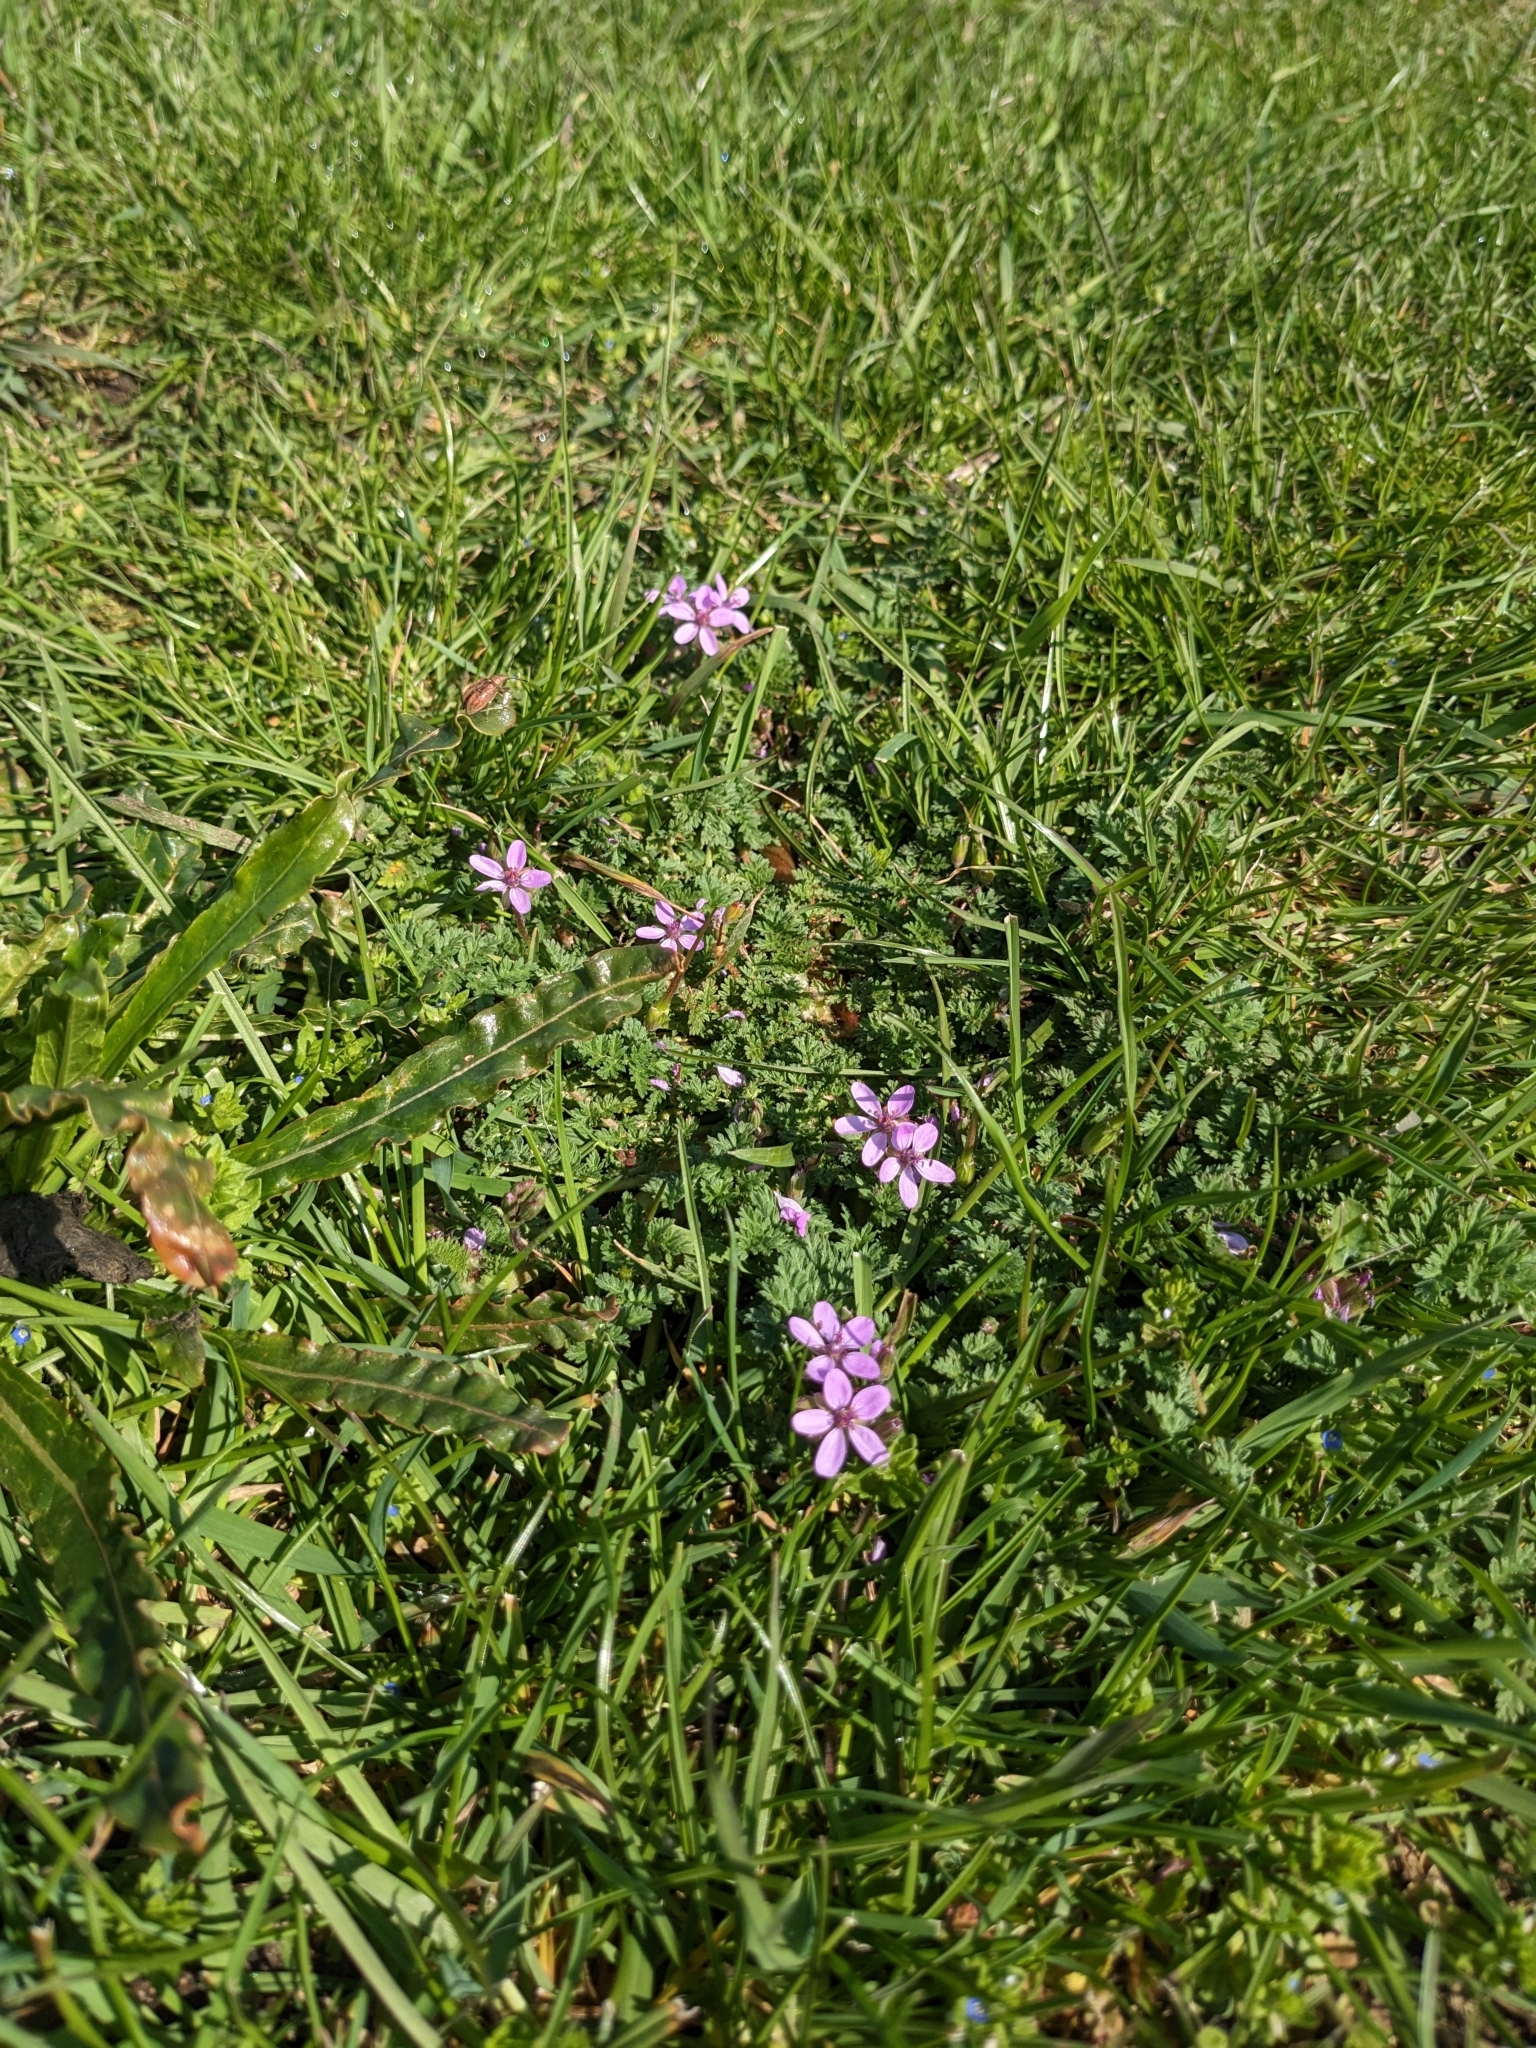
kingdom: Plantae
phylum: Tracheophyta
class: Magnoliopsida
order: Geraniales
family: Geraniaceae
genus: Erodium
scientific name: Erodium cicutarium
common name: Common stork's-bill
